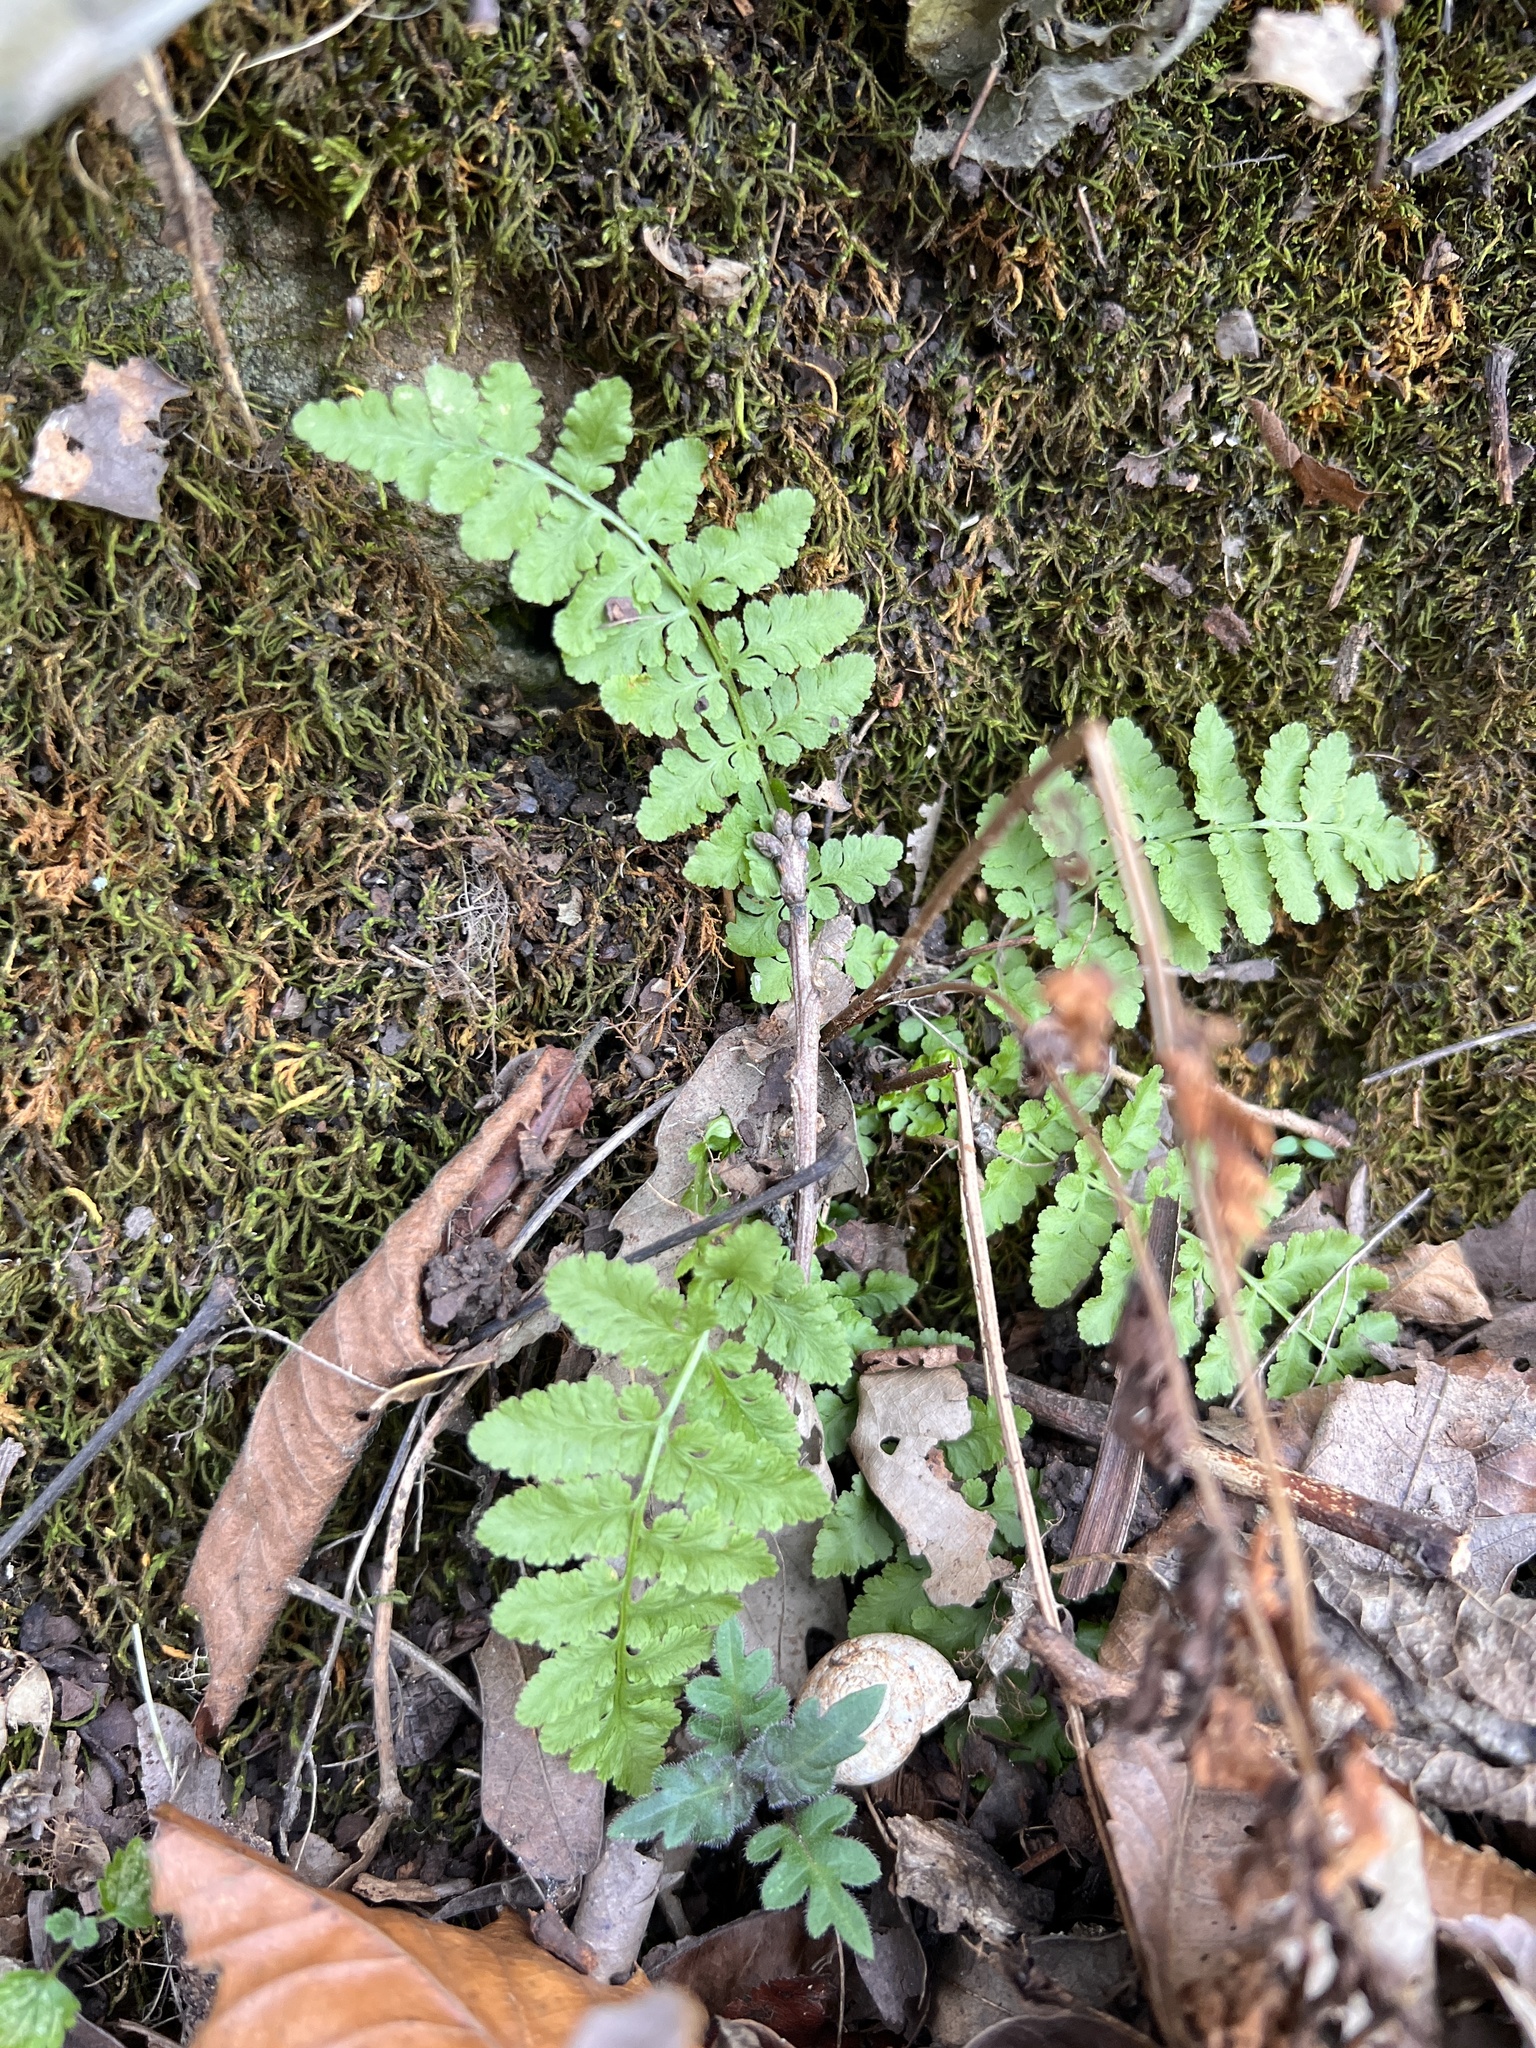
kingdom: Plantae
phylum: Tracheophyta
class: Polypodiopsida
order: Polypodiales
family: Woodsiaceae
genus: Physematium
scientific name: Physematium obtusum
